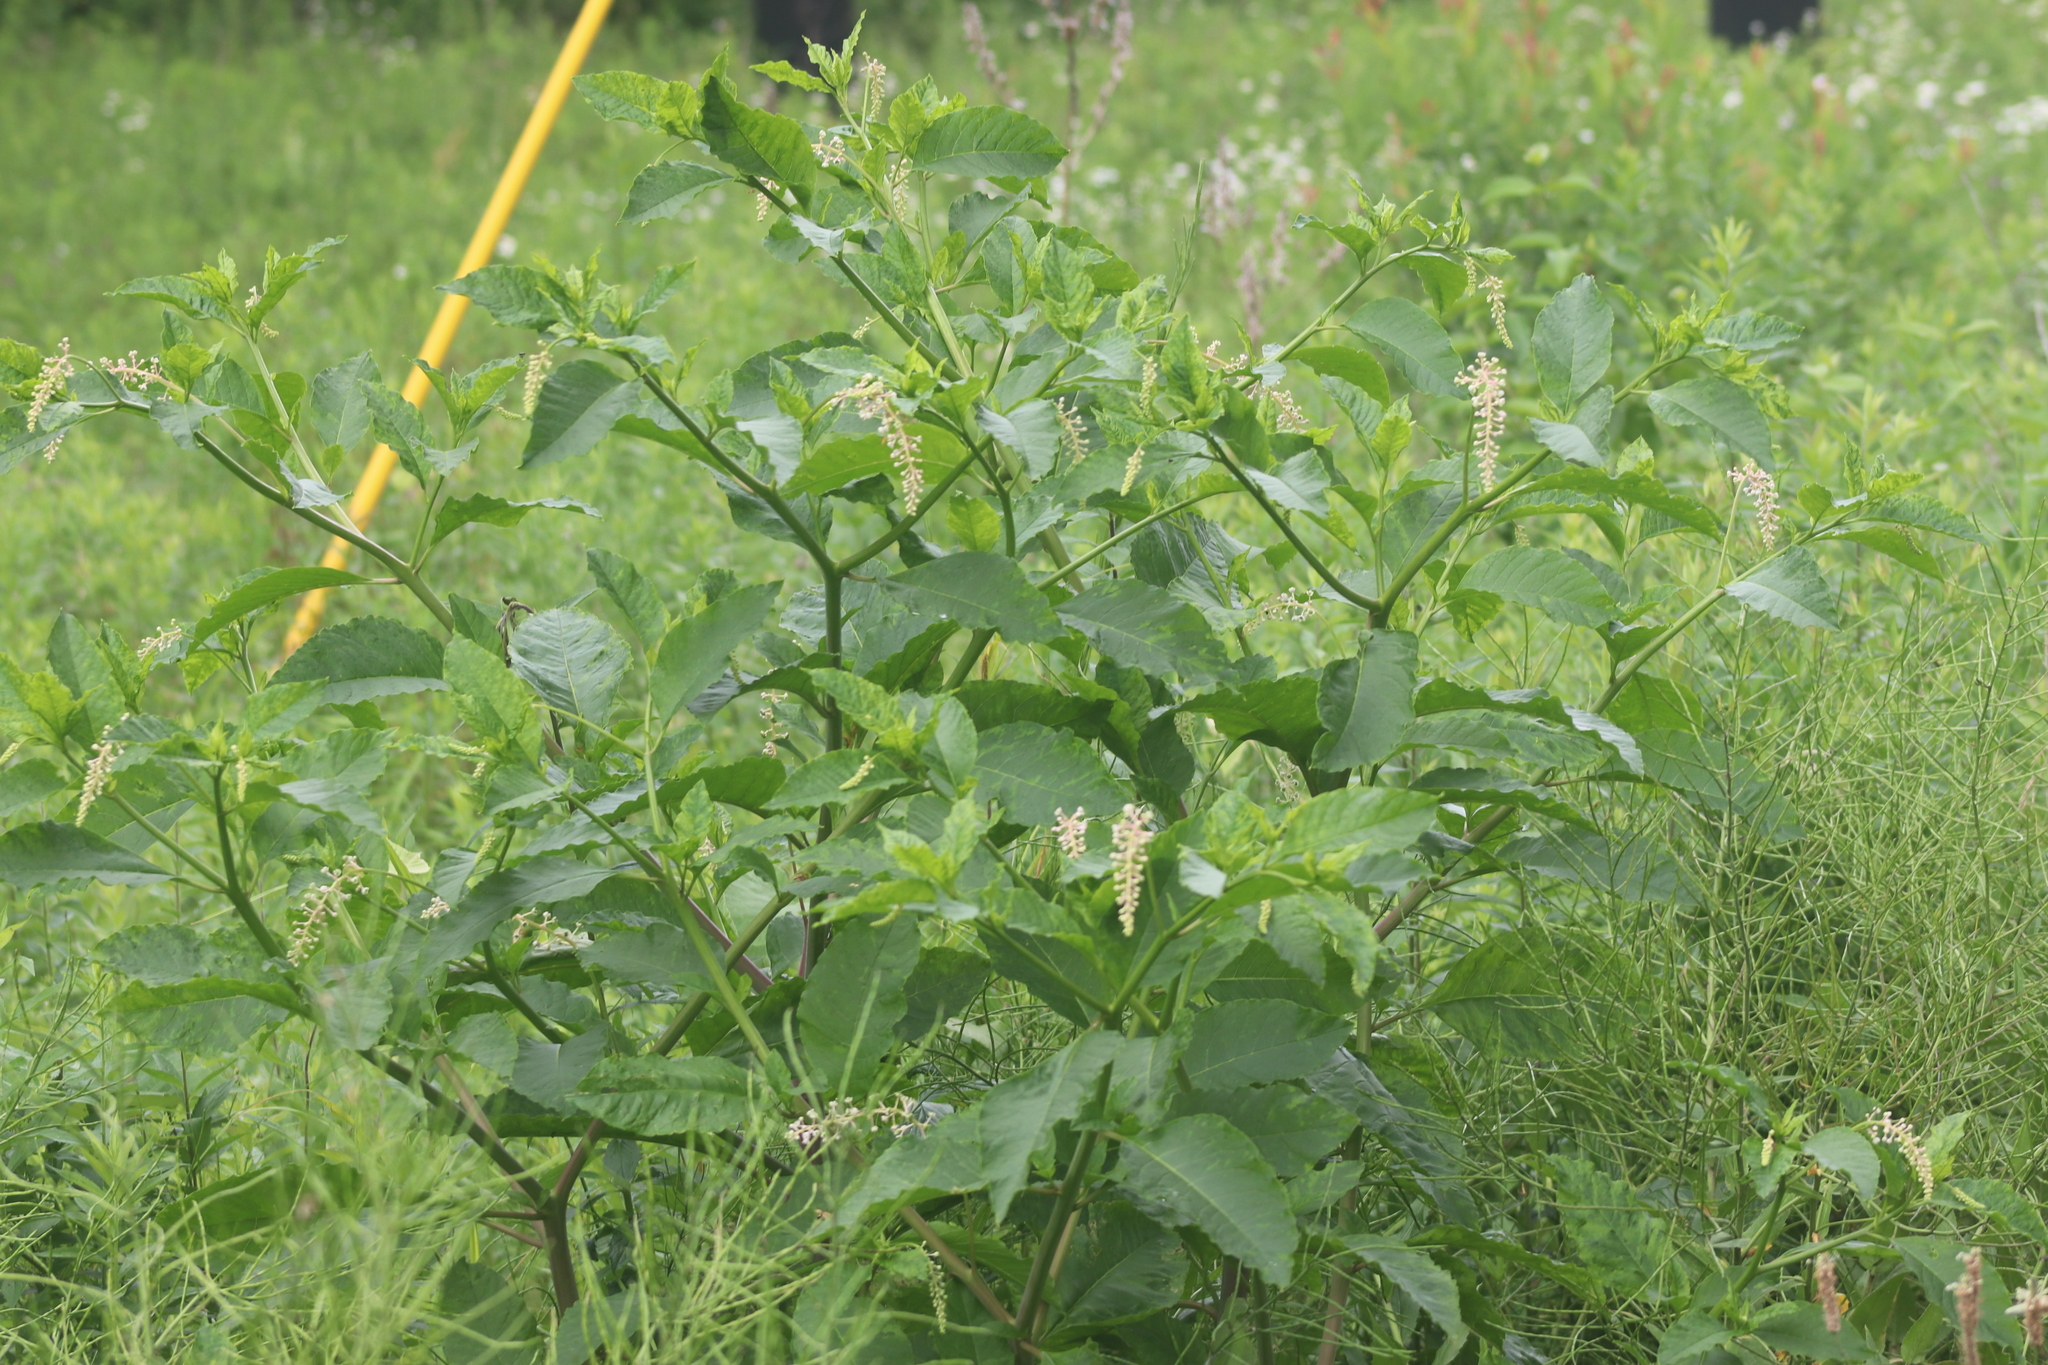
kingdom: Plantae
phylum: Tracheophyta
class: Magnoliopsida
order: Caryophyllales
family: Phytolaccaceae
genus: Phytolacca
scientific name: Phytolacca americana
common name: American pokeweed
